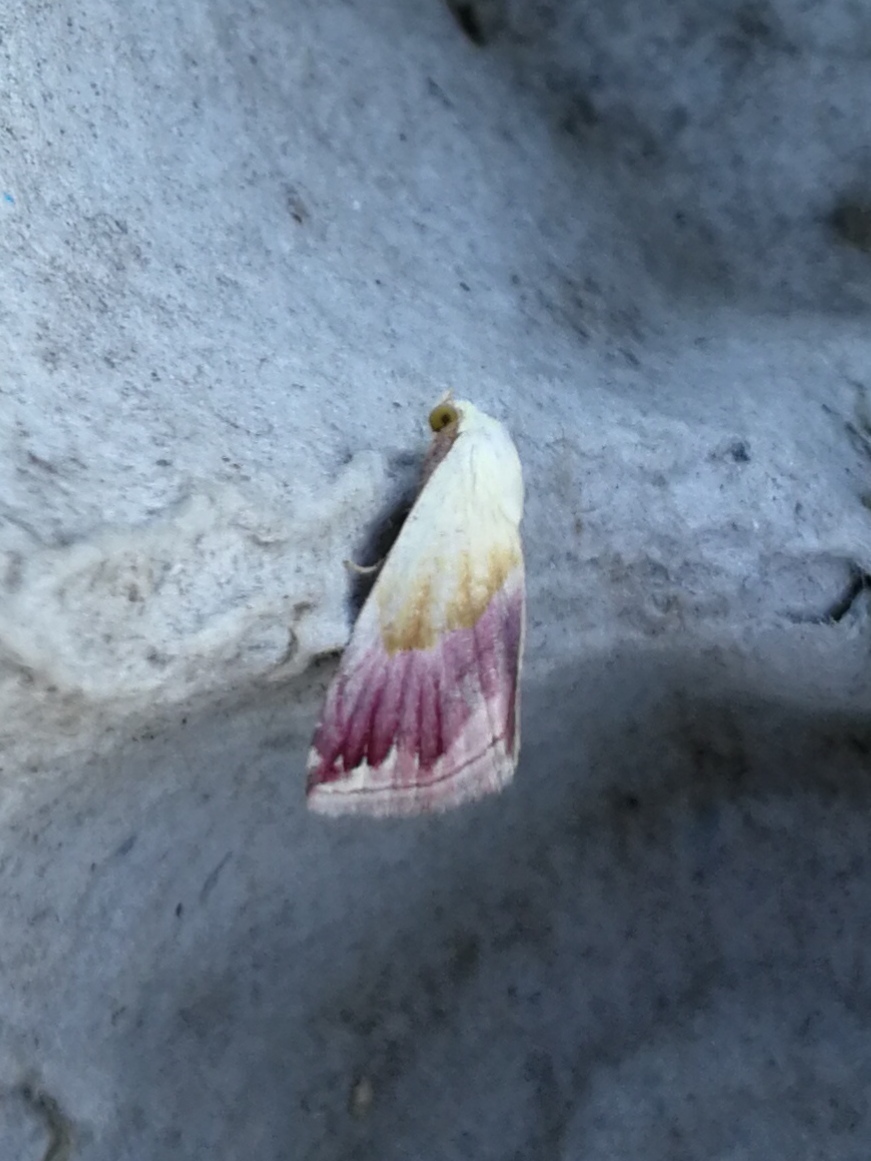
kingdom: Animalia
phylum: Arthropoda
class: Insecta
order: Lepidoptera
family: Noctuidae
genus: Eublemma
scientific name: Eublemma purpurina
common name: Beautiful marbled
